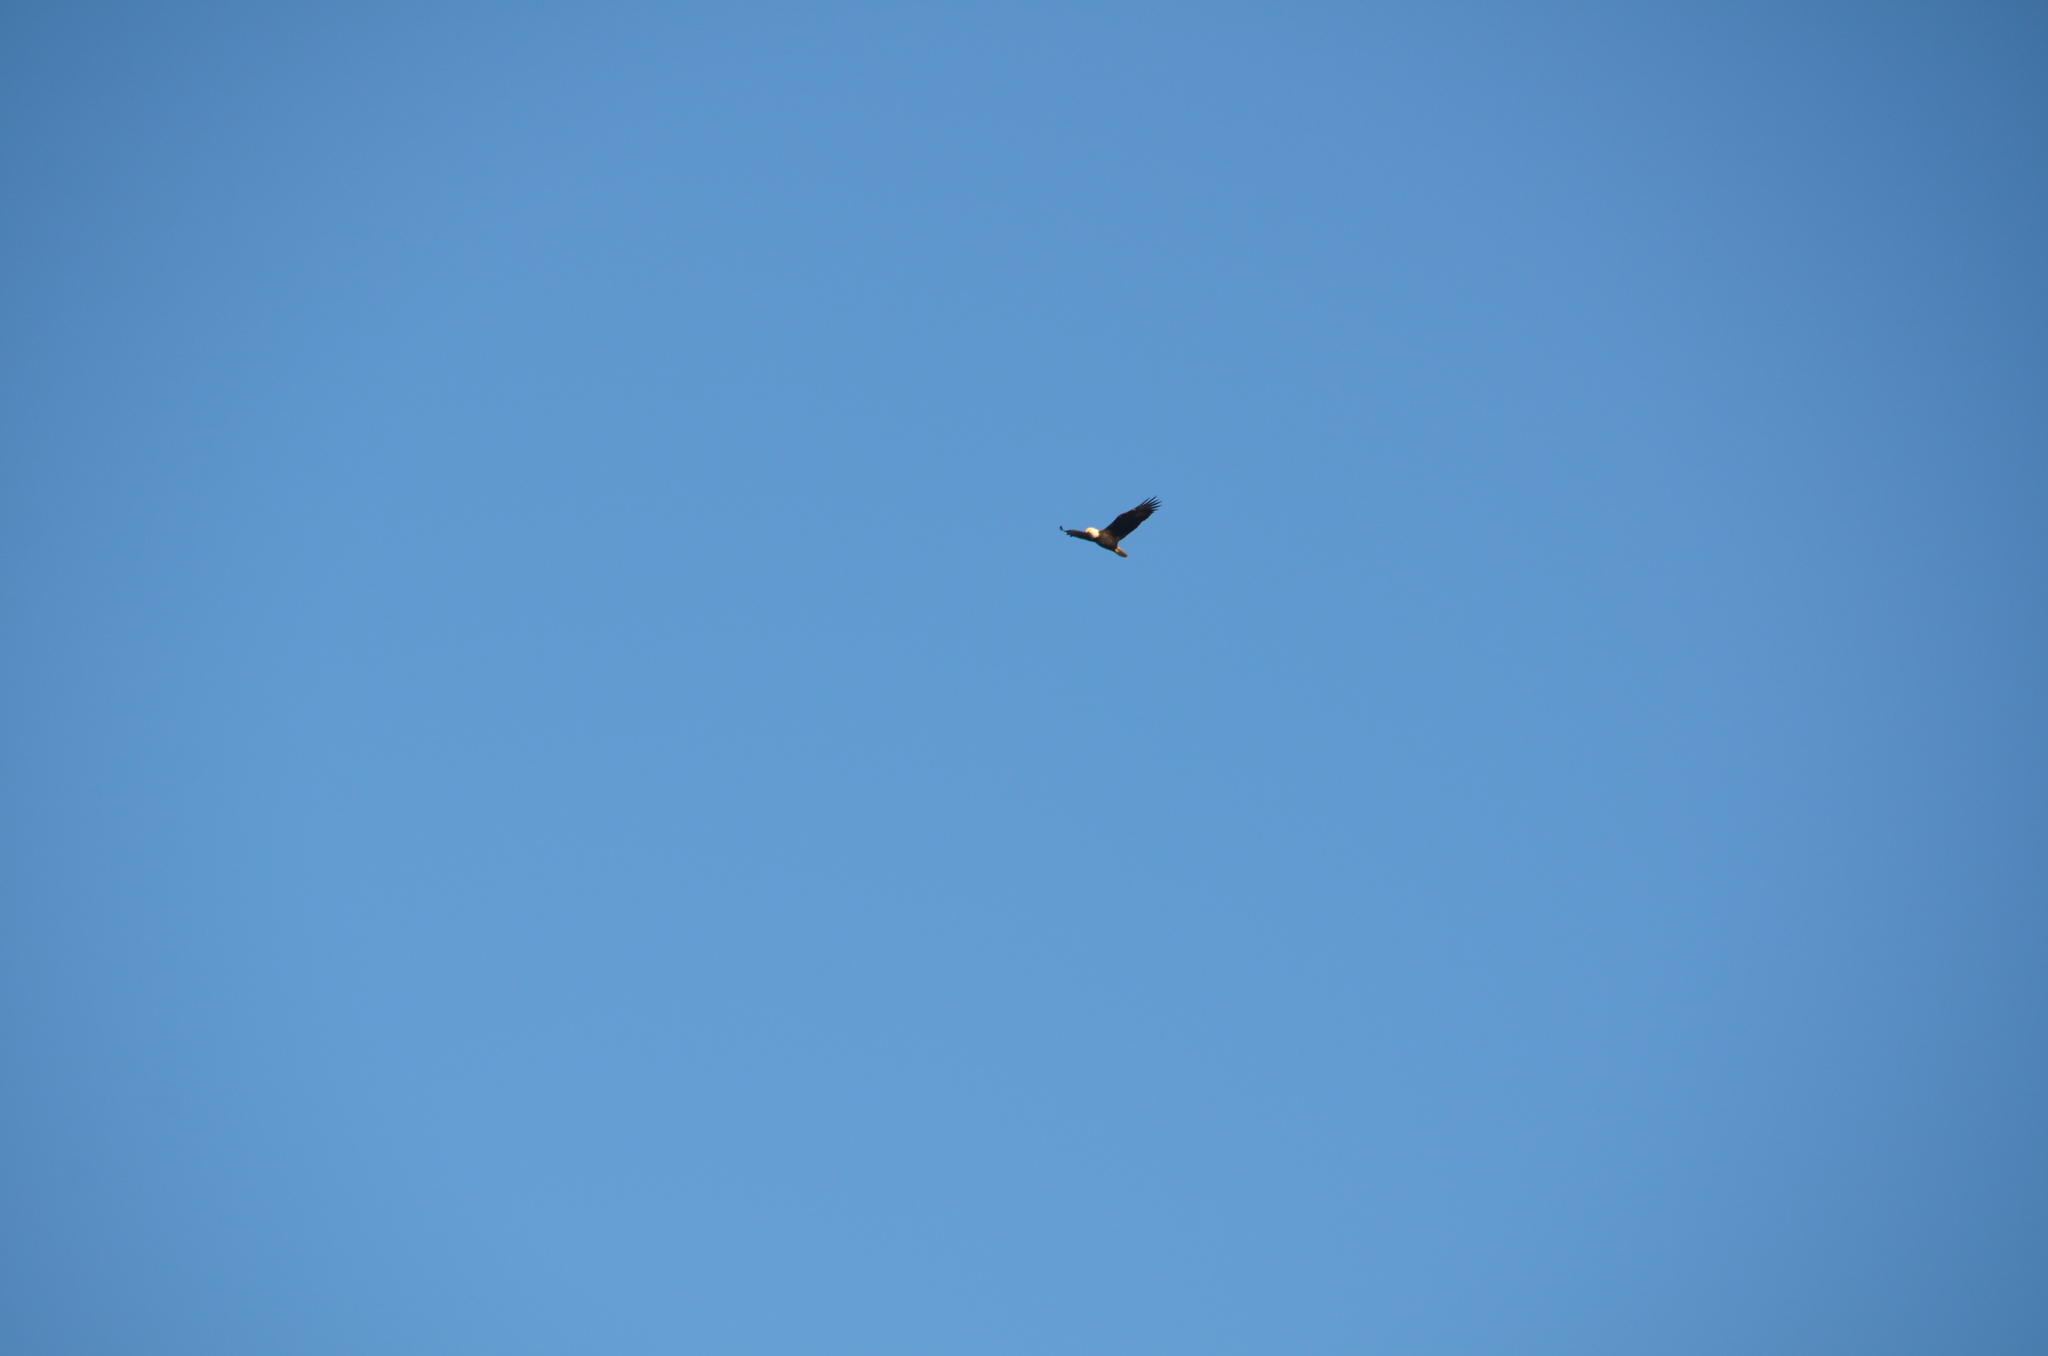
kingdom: Animalia
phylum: Chordata
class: Aves
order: Accipitriformes
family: Accipitridae
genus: Haliaeetus
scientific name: Haliaeetus leucocephalus
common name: Bald eagle
